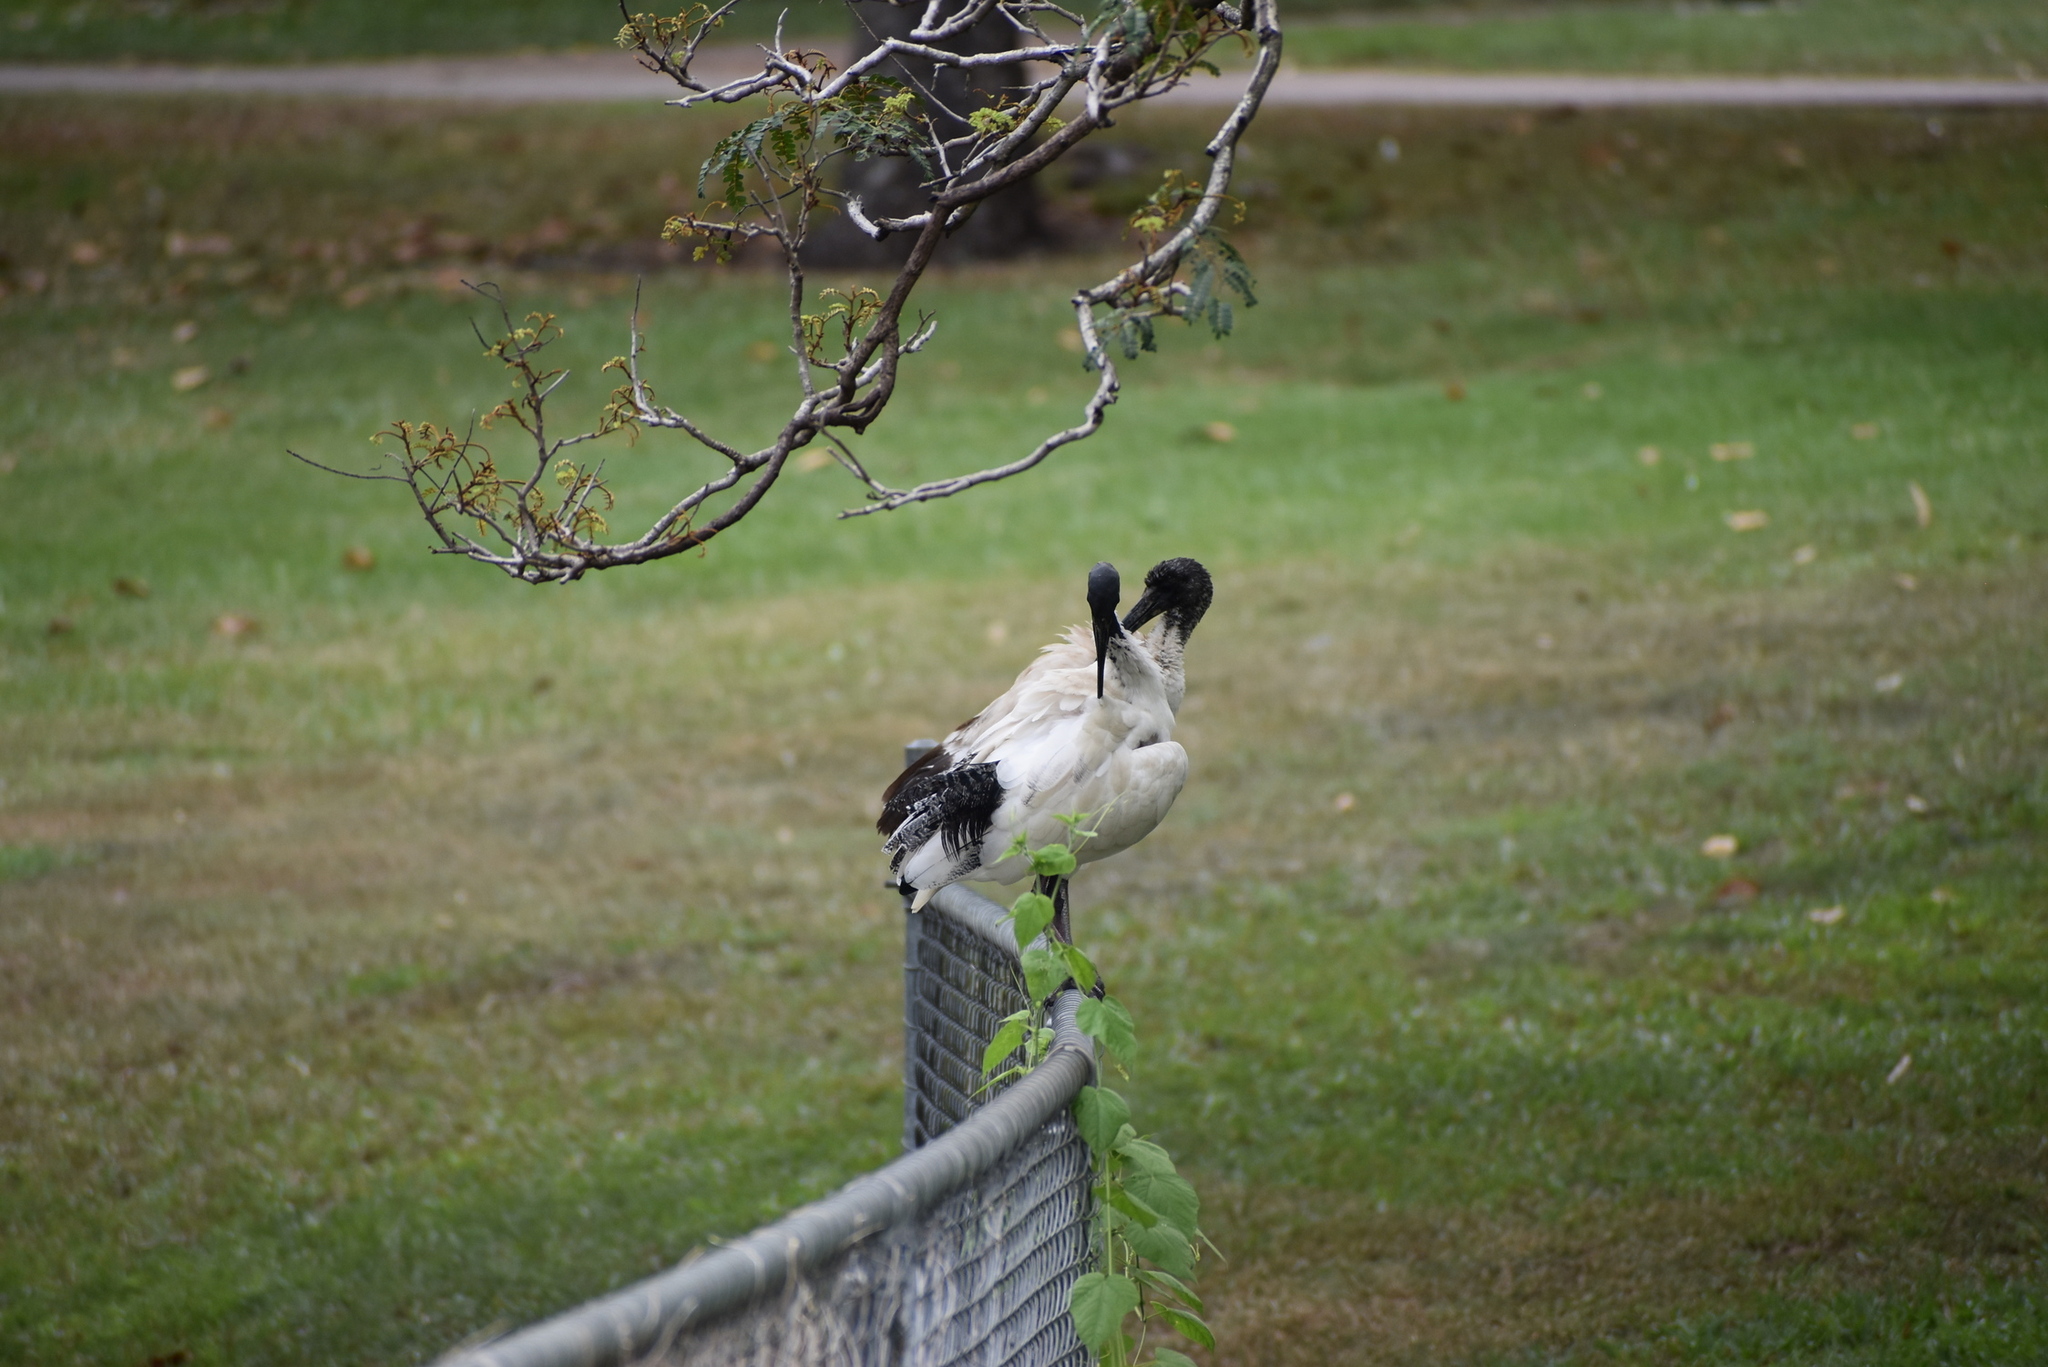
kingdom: Animalia
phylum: Chordata
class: Aves
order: Pelecaniformes
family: Threskiornithidae
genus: Threskiornis
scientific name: Threskiornis molucca
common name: Australian white ibis
